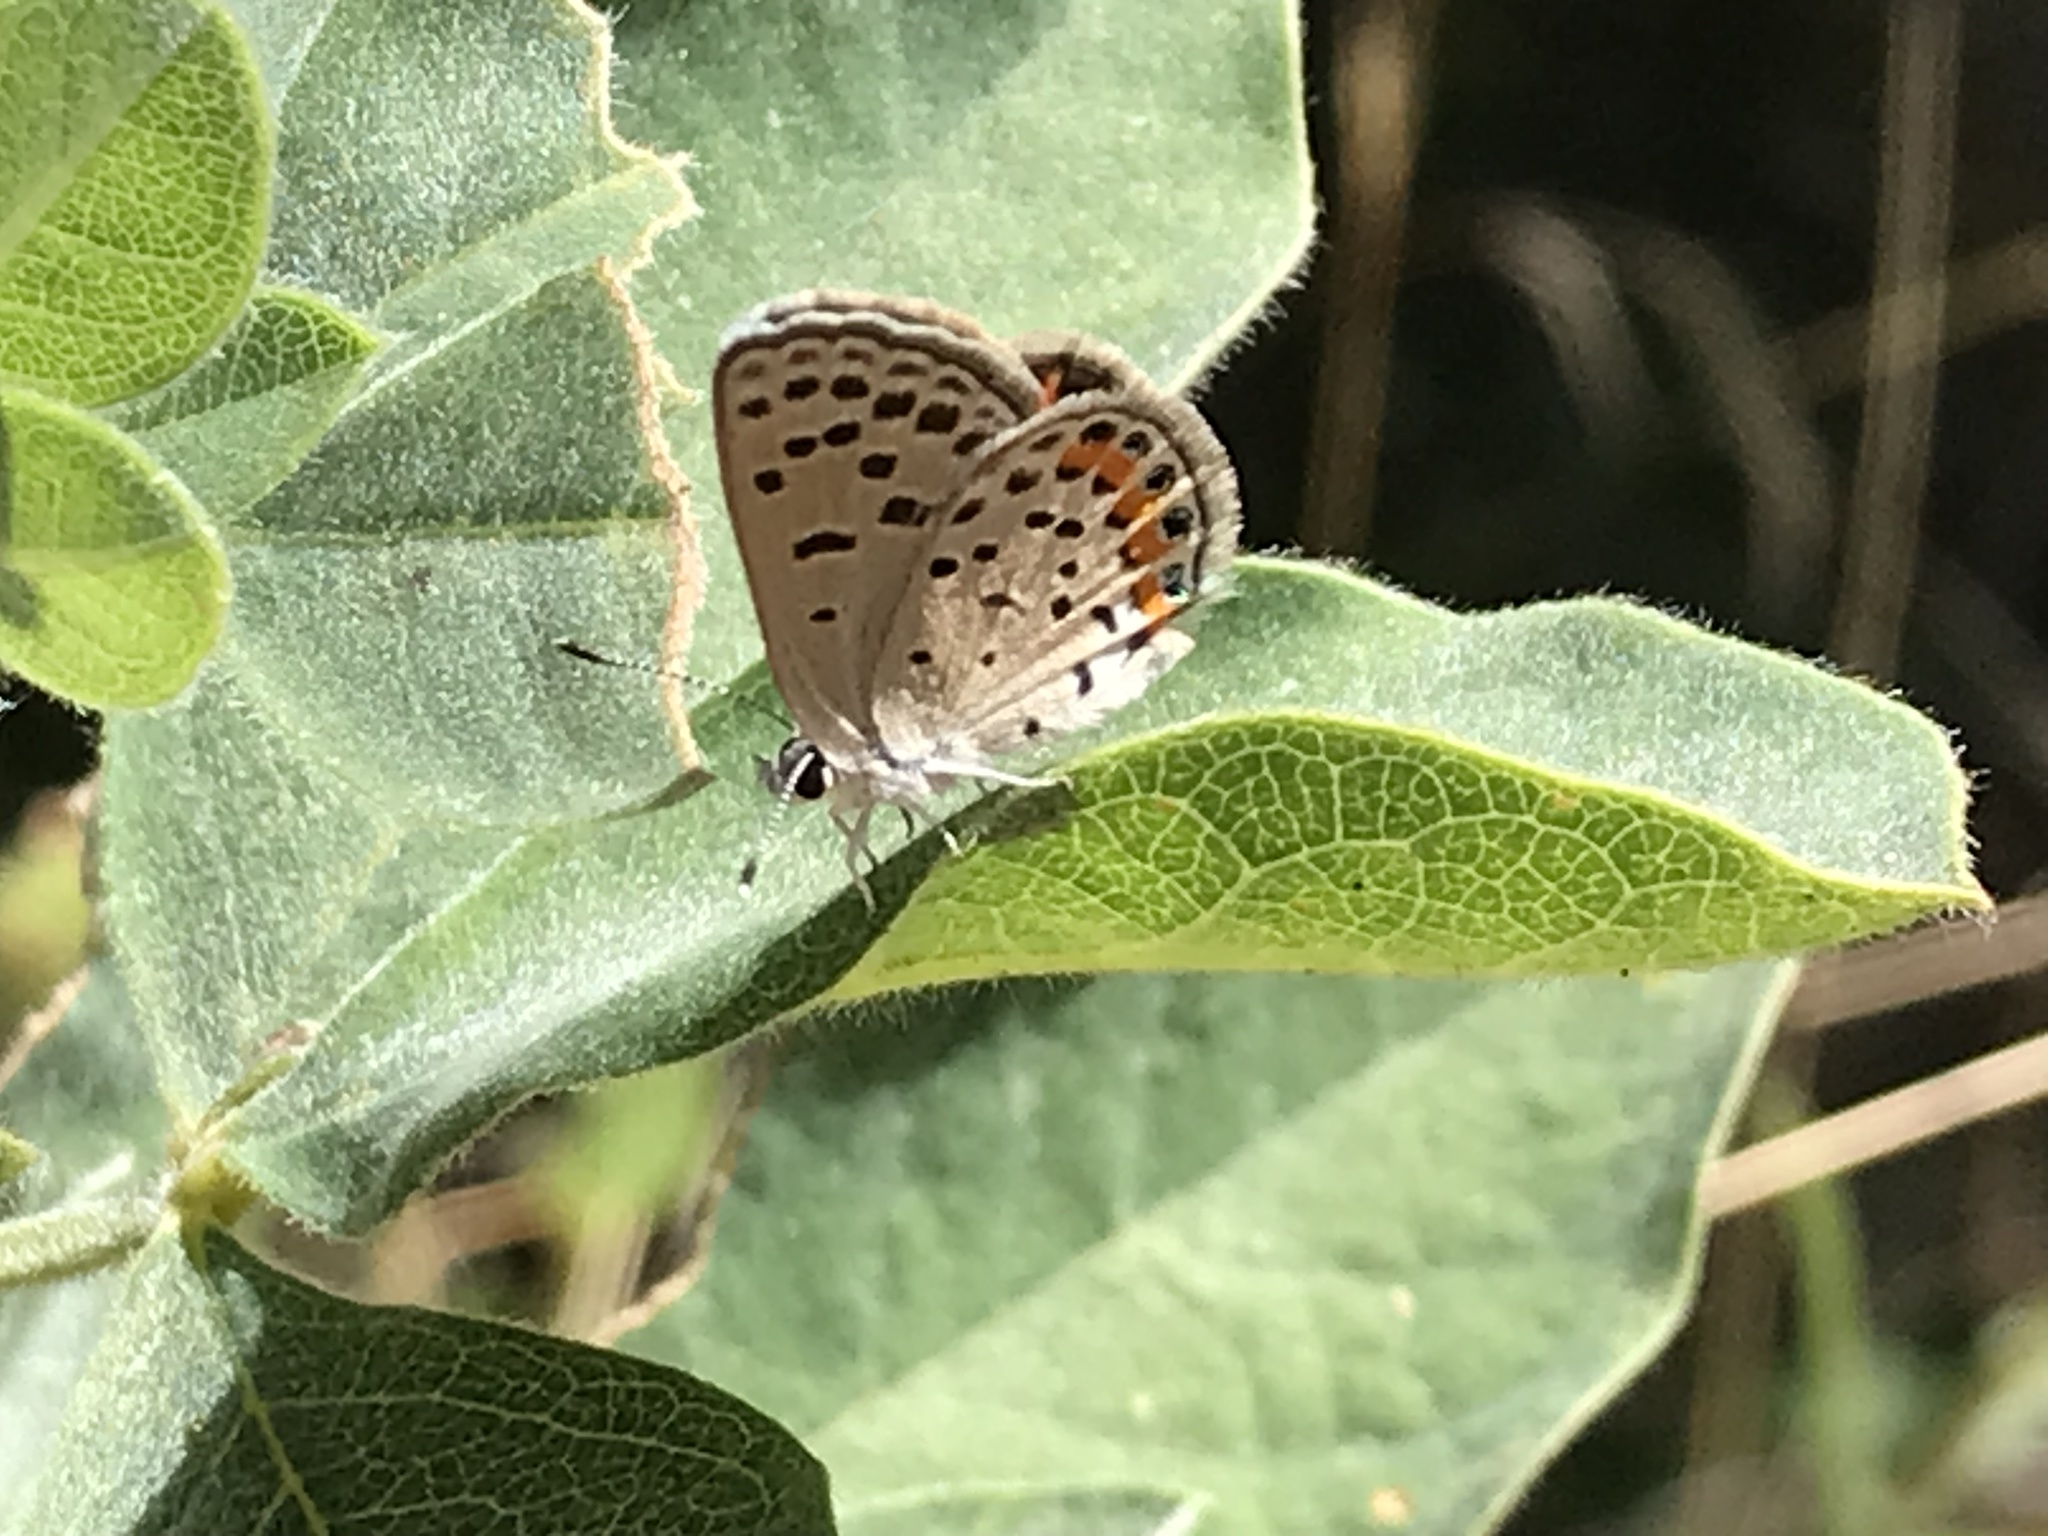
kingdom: Animalia
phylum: Arthropoda
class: Insecta
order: Lepidoptera
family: Lycaenidae
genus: Icaricia
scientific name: Icaricia acmon
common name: Acmon blue
